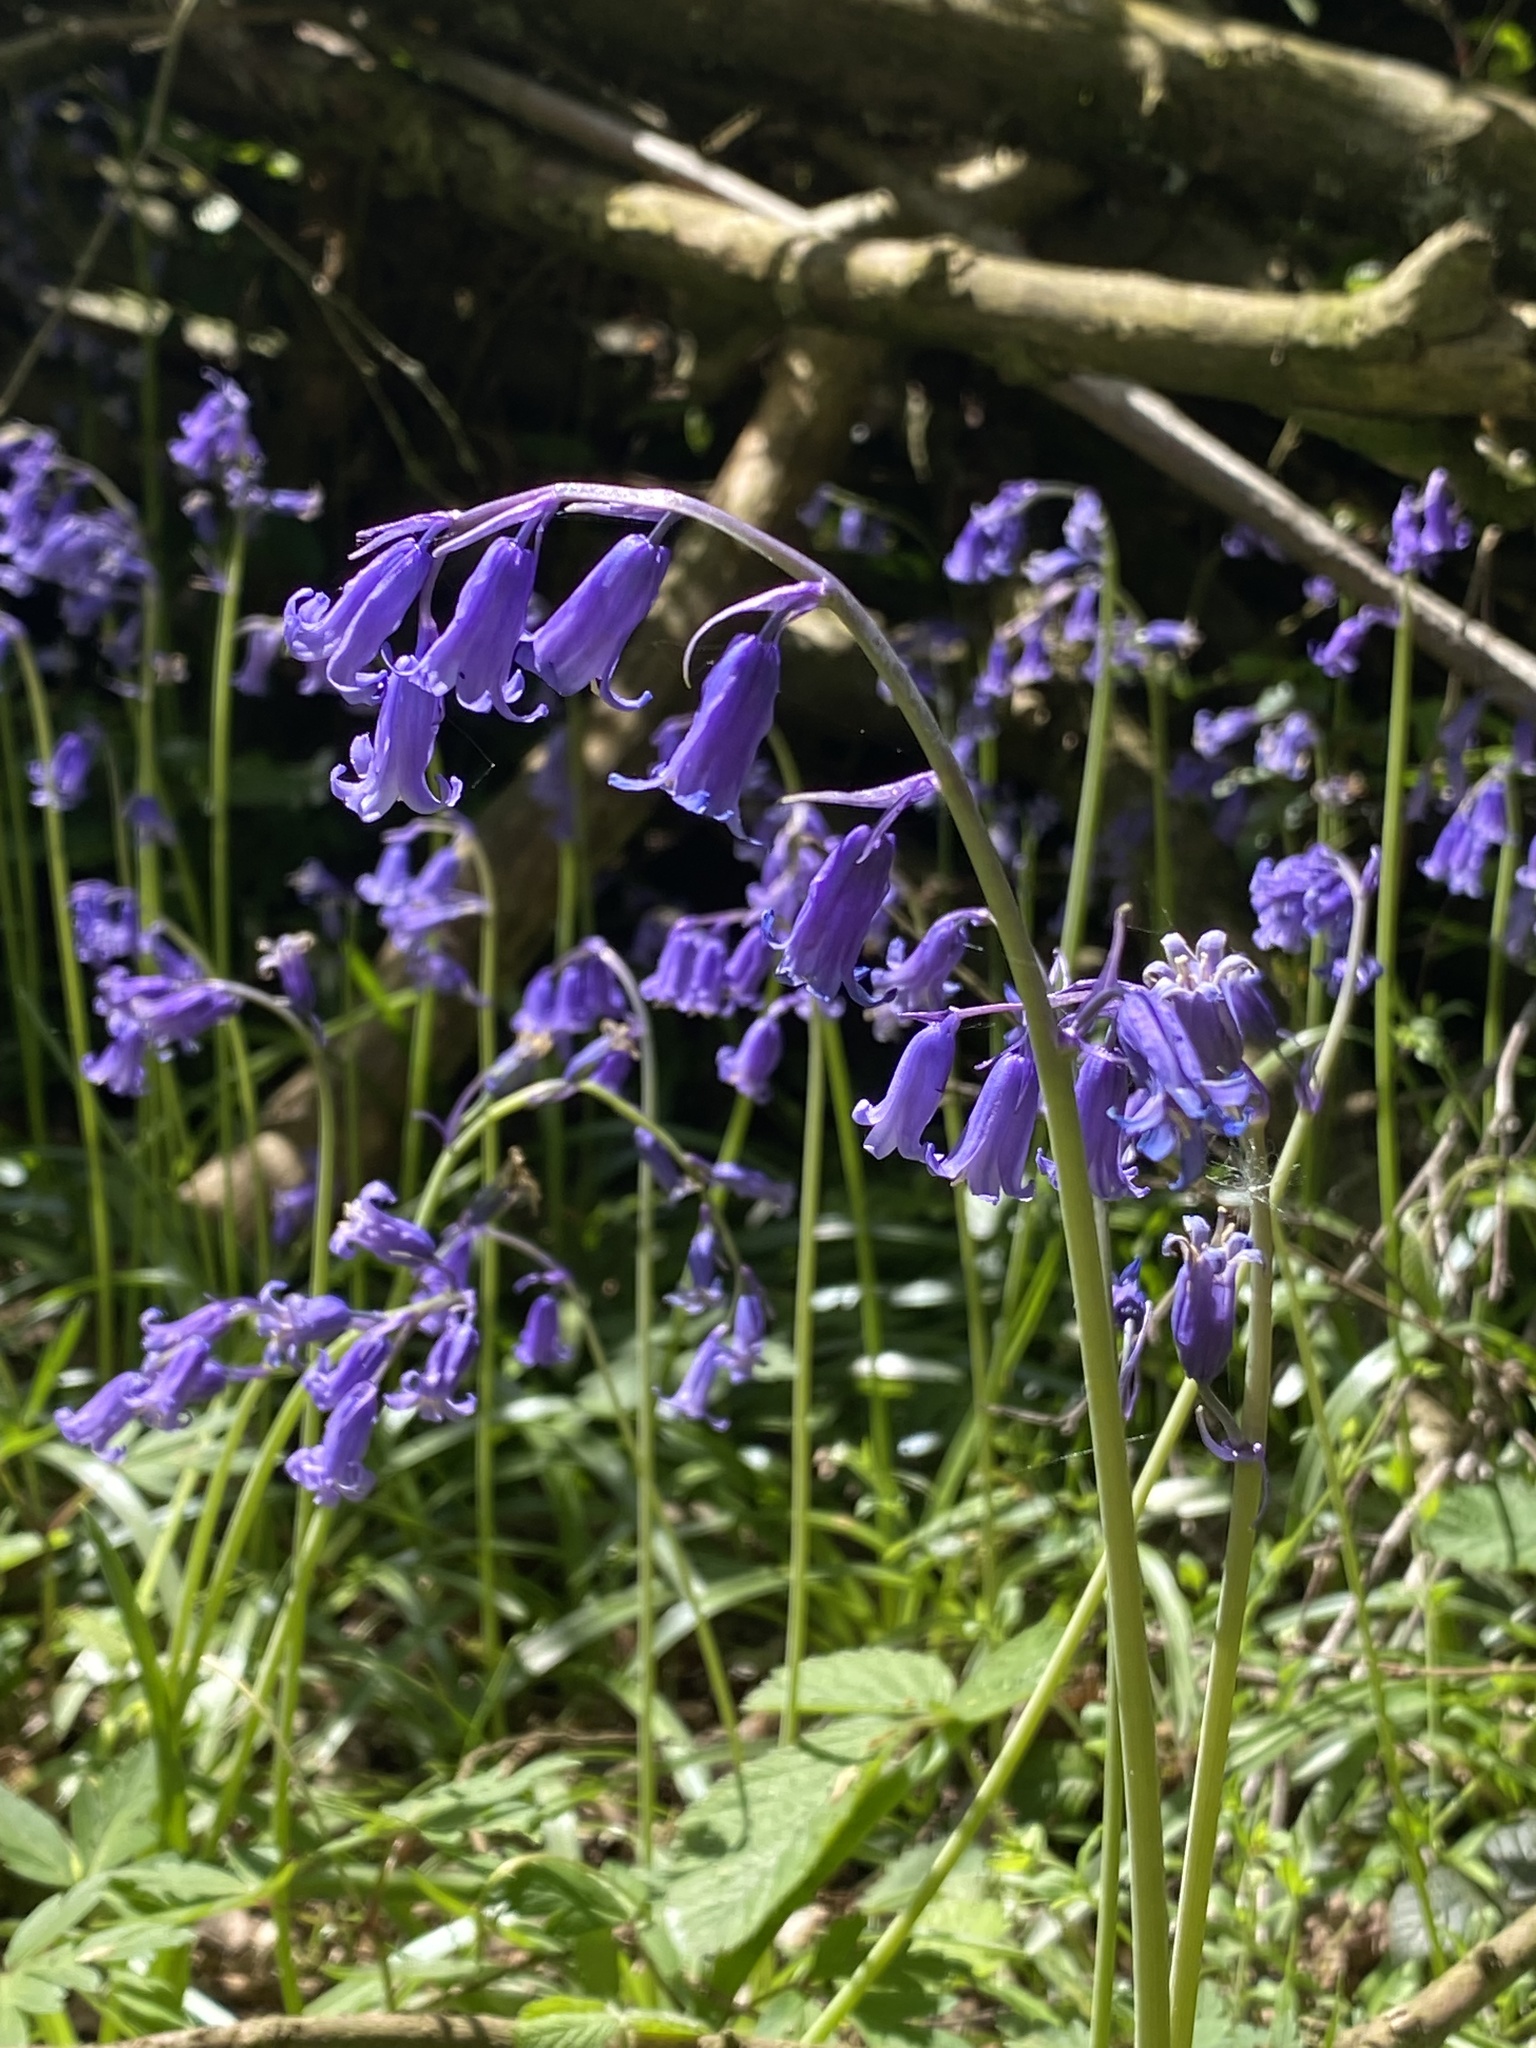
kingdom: Plantae
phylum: Tracheophyta
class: Liliopsida
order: Asparagales
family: Asparagaceae
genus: Hyacinthoides
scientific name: Hyacinthoides non-scripta
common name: Bluebell
